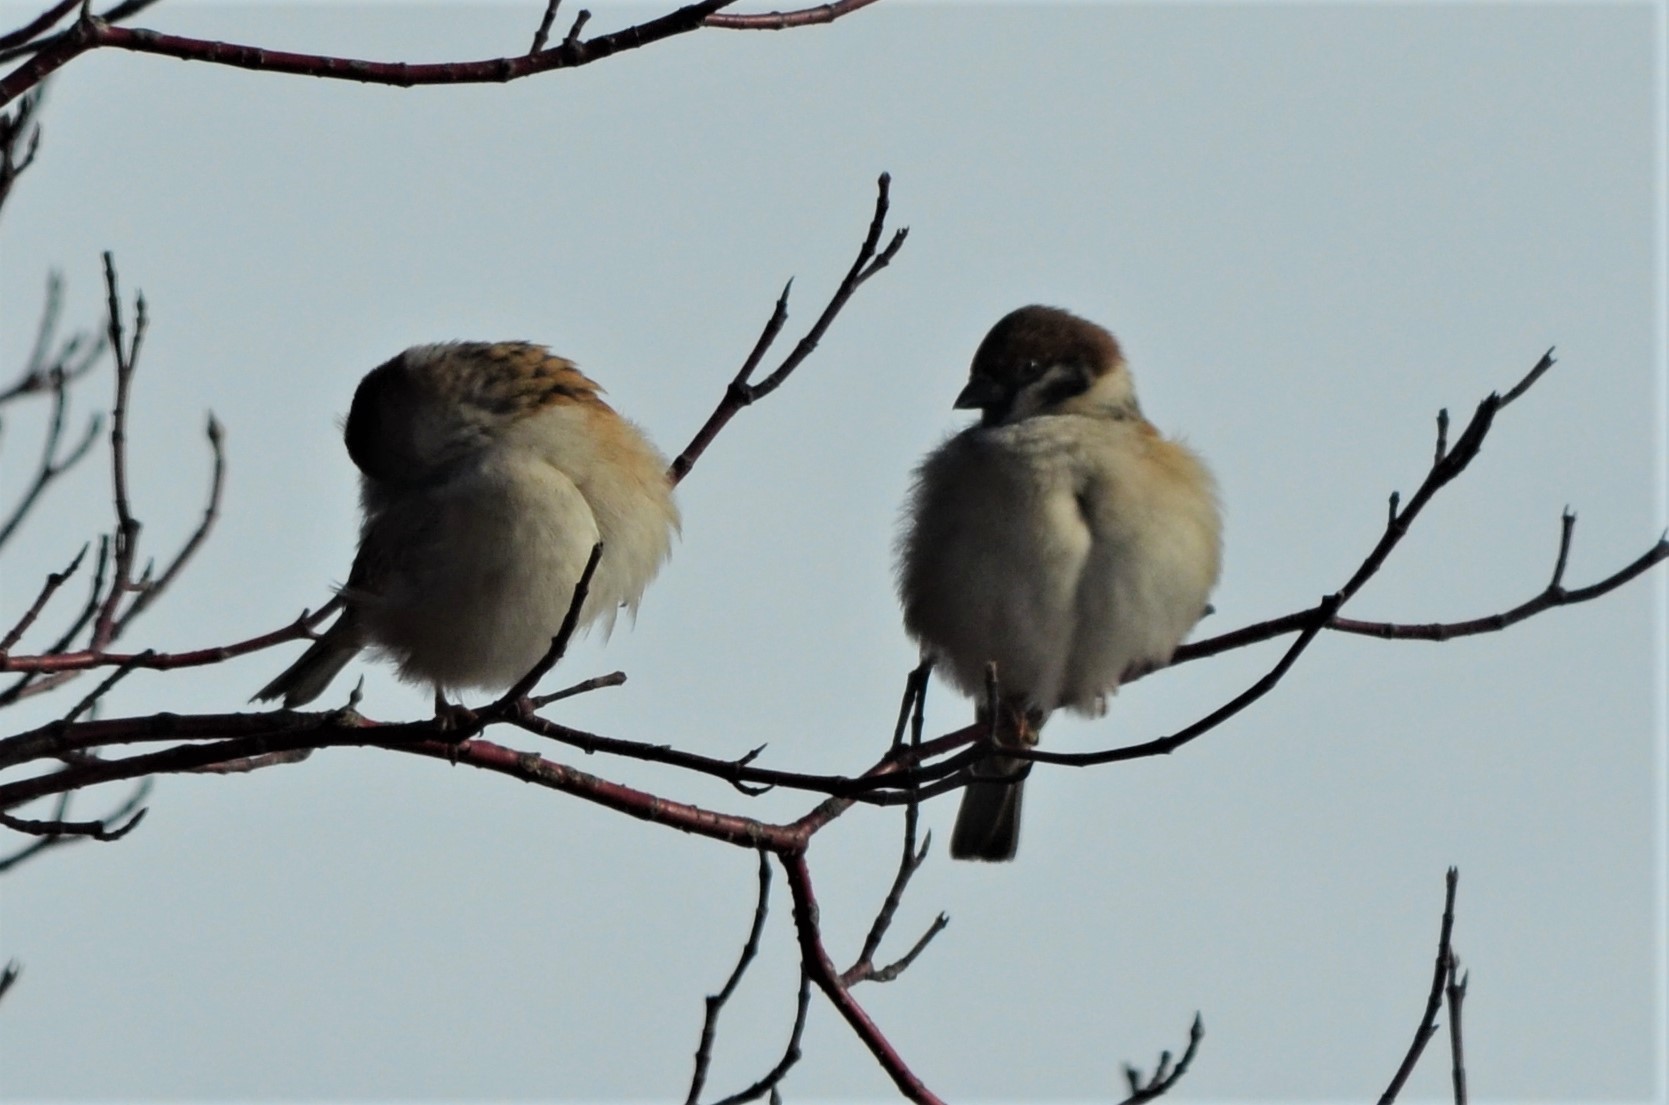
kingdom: Animalia
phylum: Chordata
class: Aves
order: Passeriformes
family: Passeridae
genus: Passer
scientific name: Passer montanus
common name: Eurasian tree sparrow
